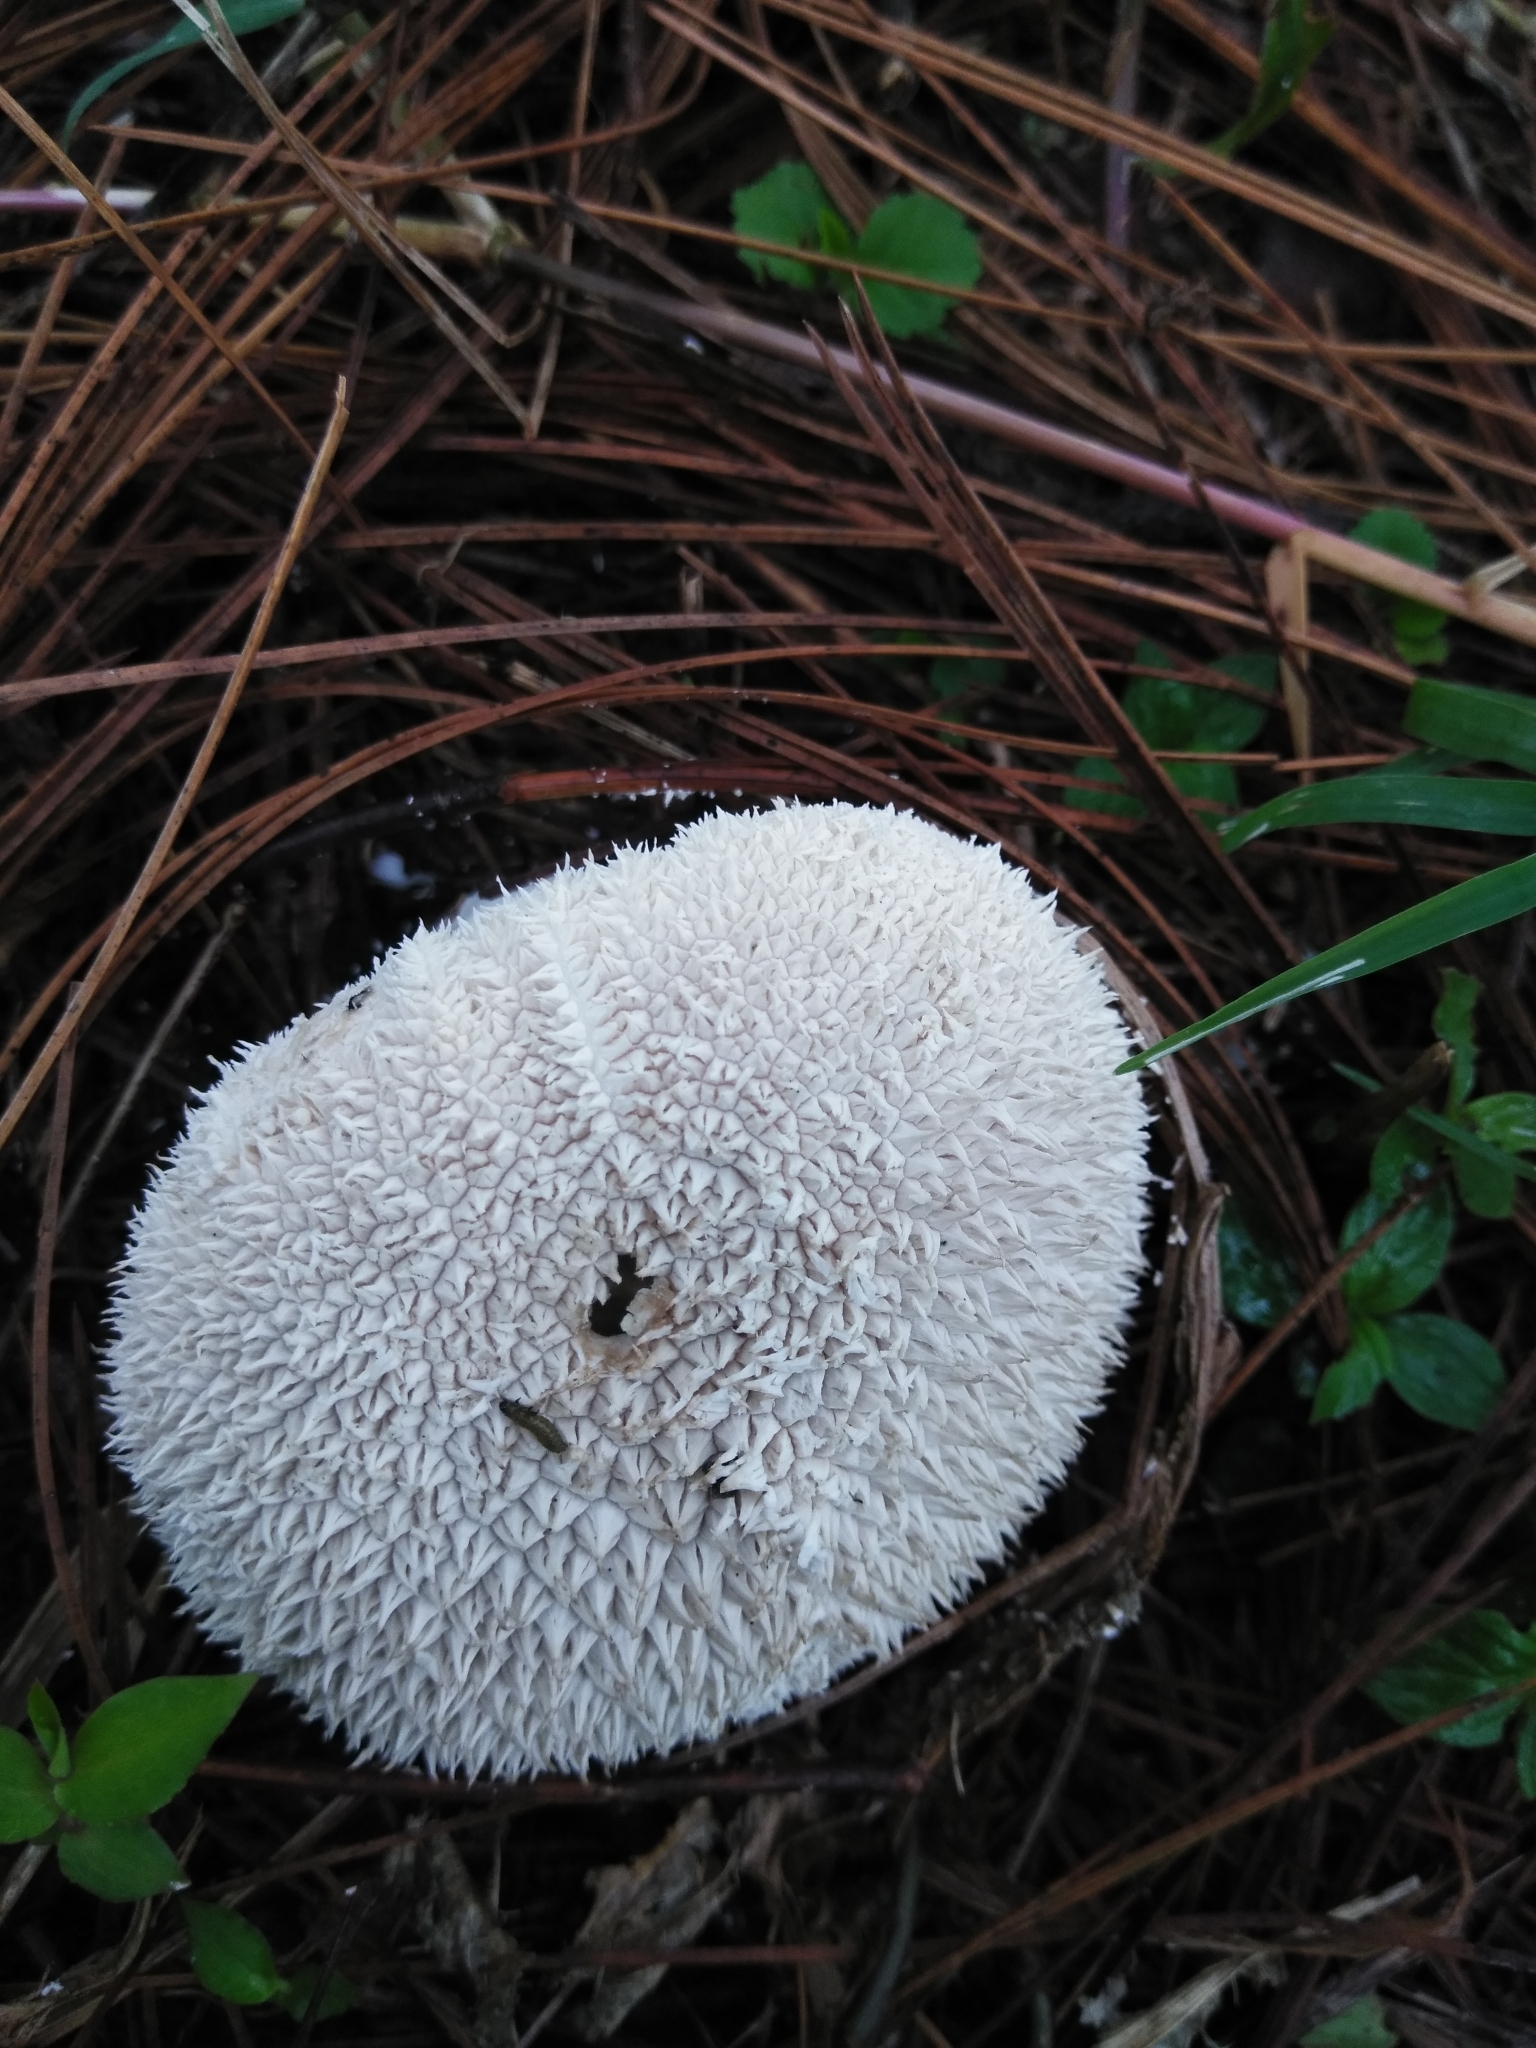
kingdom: Fungi
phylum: Basidiomycota
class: Agaricomycetes
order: Agaricales
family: Agaricaceae
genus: Lycoperdon
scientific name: Lycoperdon marginatum
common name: Peeling puffball
